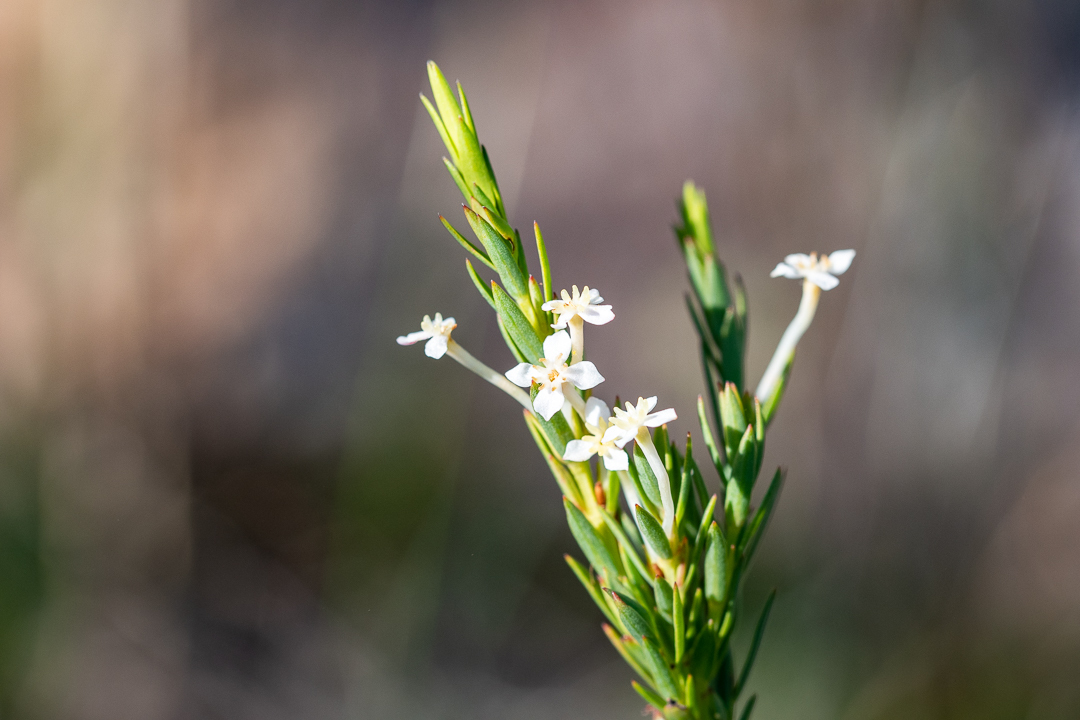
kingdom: Plantae
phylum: Tracheophyta
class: Magnoliopsida
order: Malvales
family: Thymelaeaceae
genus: Struthiola
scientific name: Struthiola ciliata
